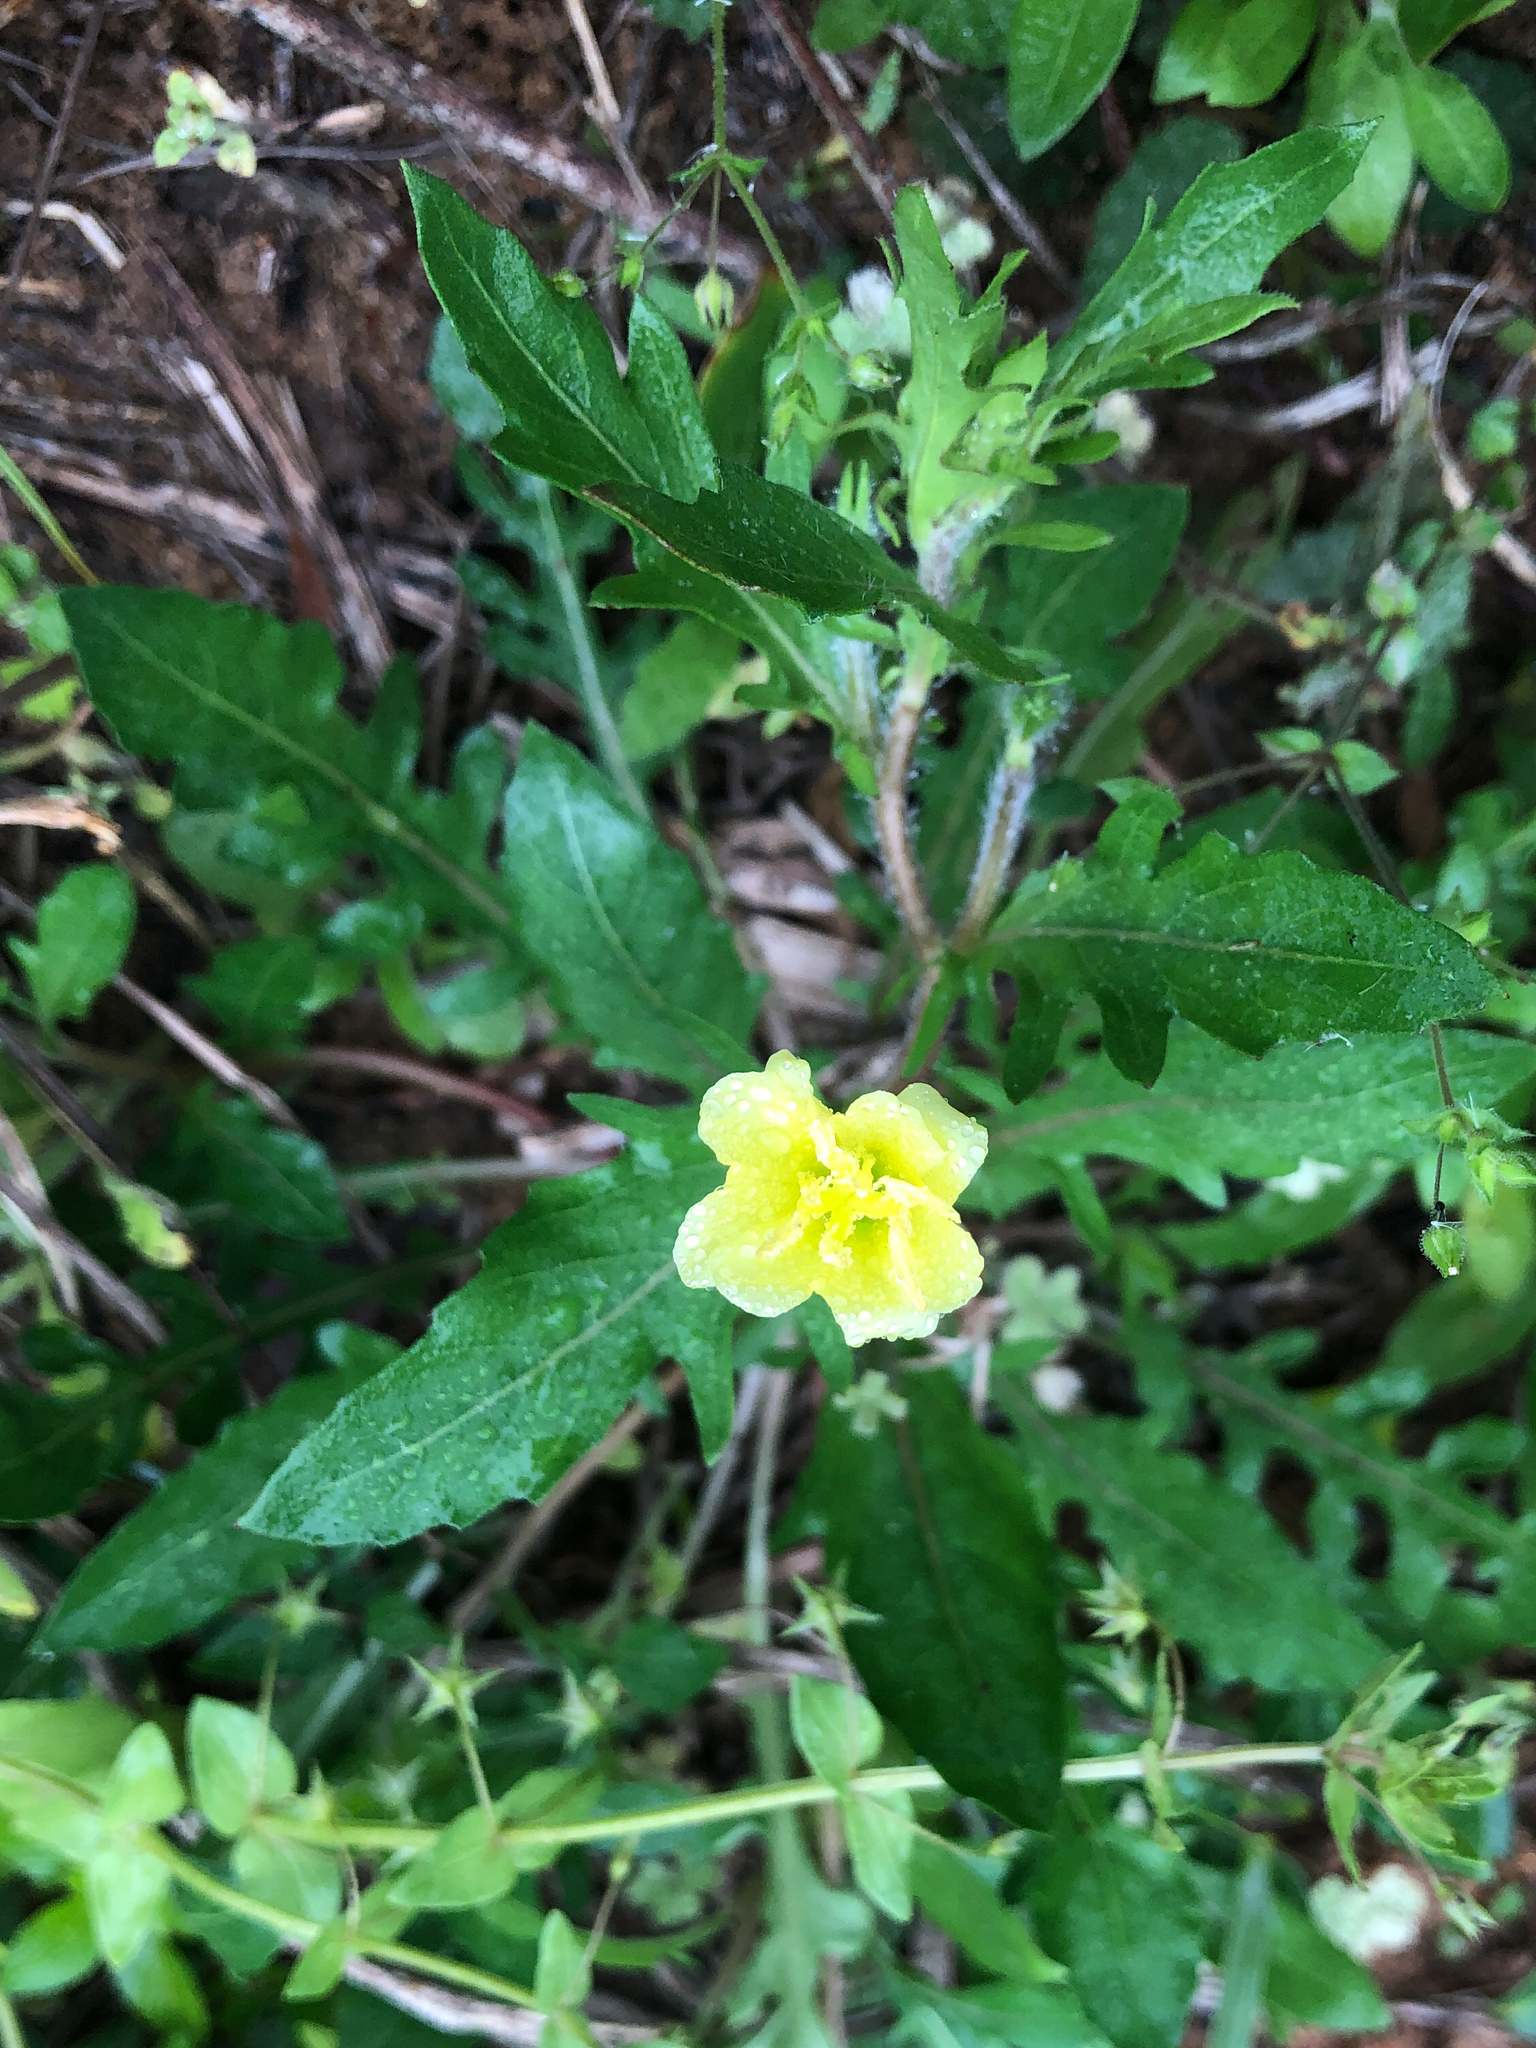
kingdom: Plantae
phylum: Tracheophyta
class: Magnoliopsida
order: Myrtales
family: Onagraceae
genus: Oenothera
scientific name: Oenothera laciniata
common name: Cut-leaved evening-primrose
